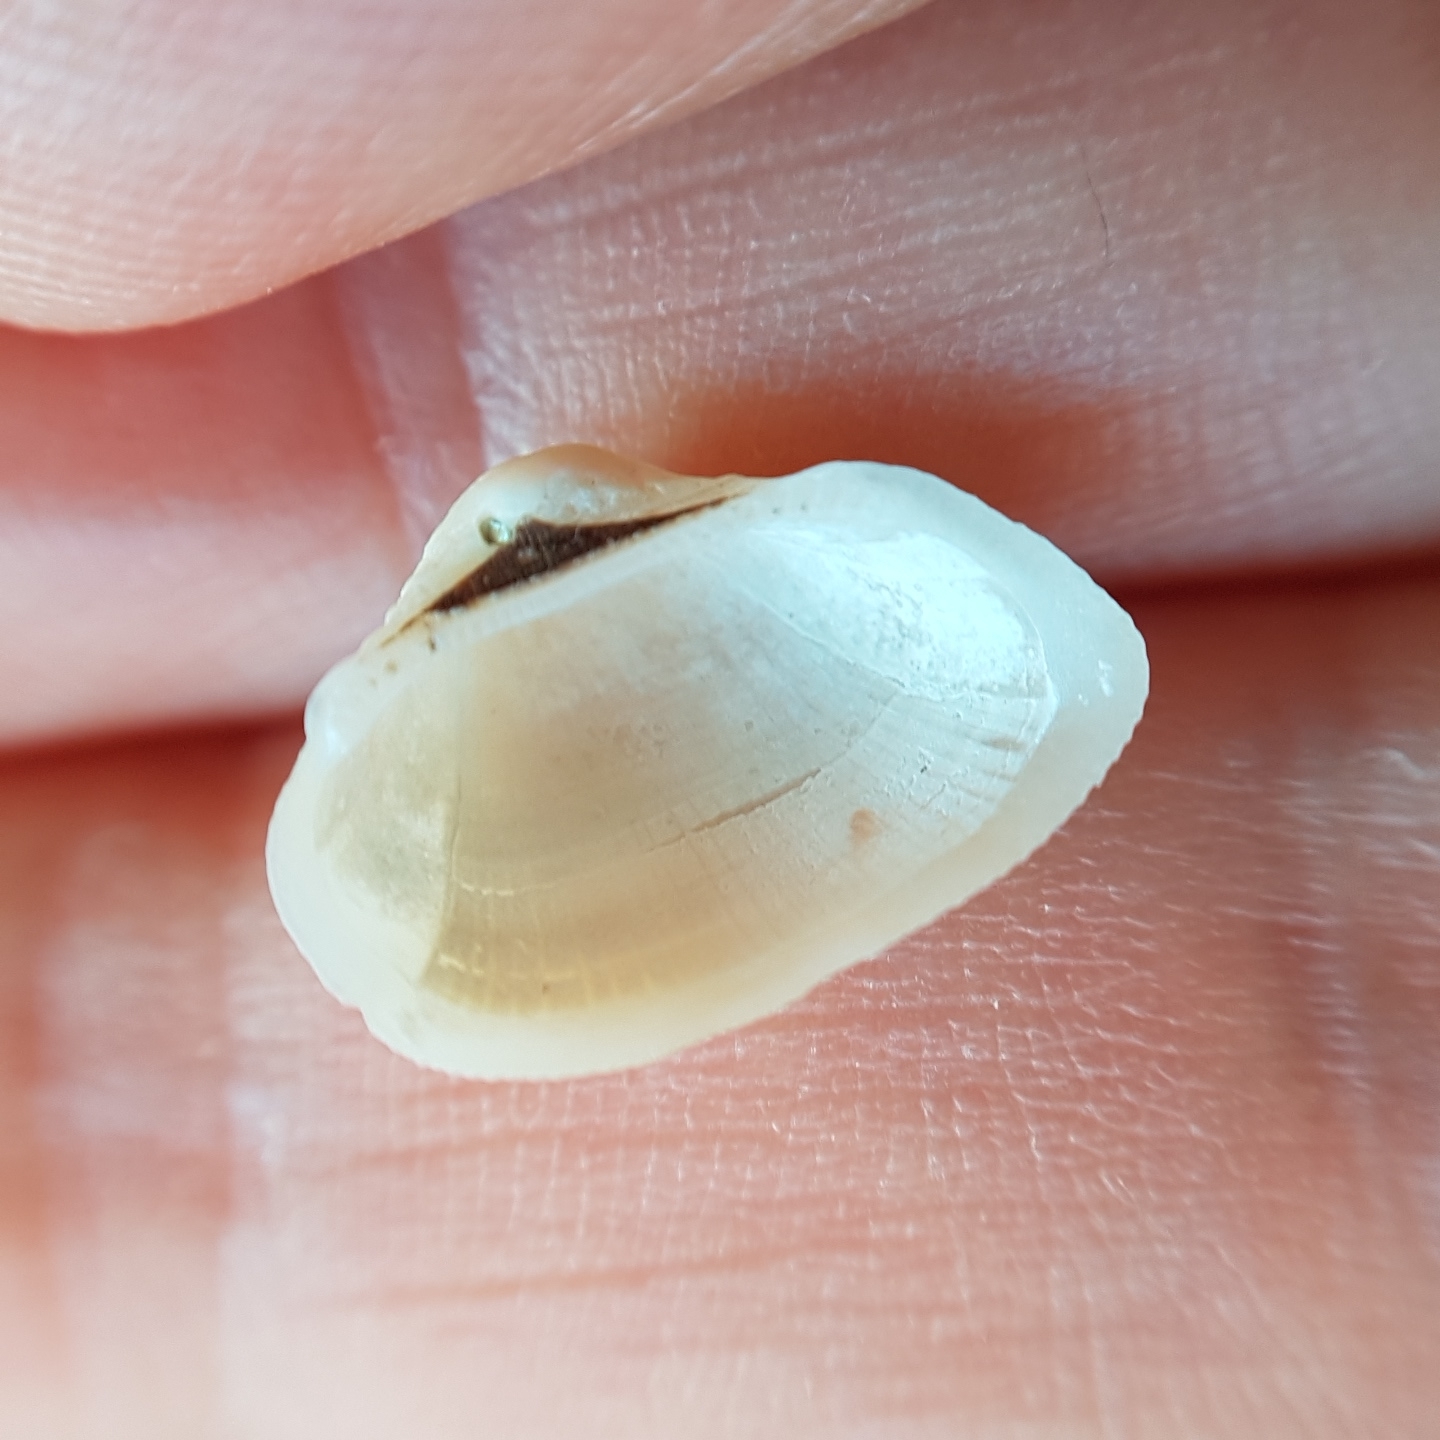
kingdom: Animalia
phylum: Mollusca
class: Bivalvia
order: Arcida
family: Noetiidae
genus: Striarca
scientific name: Striarca lactea
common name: Milky-white ark
